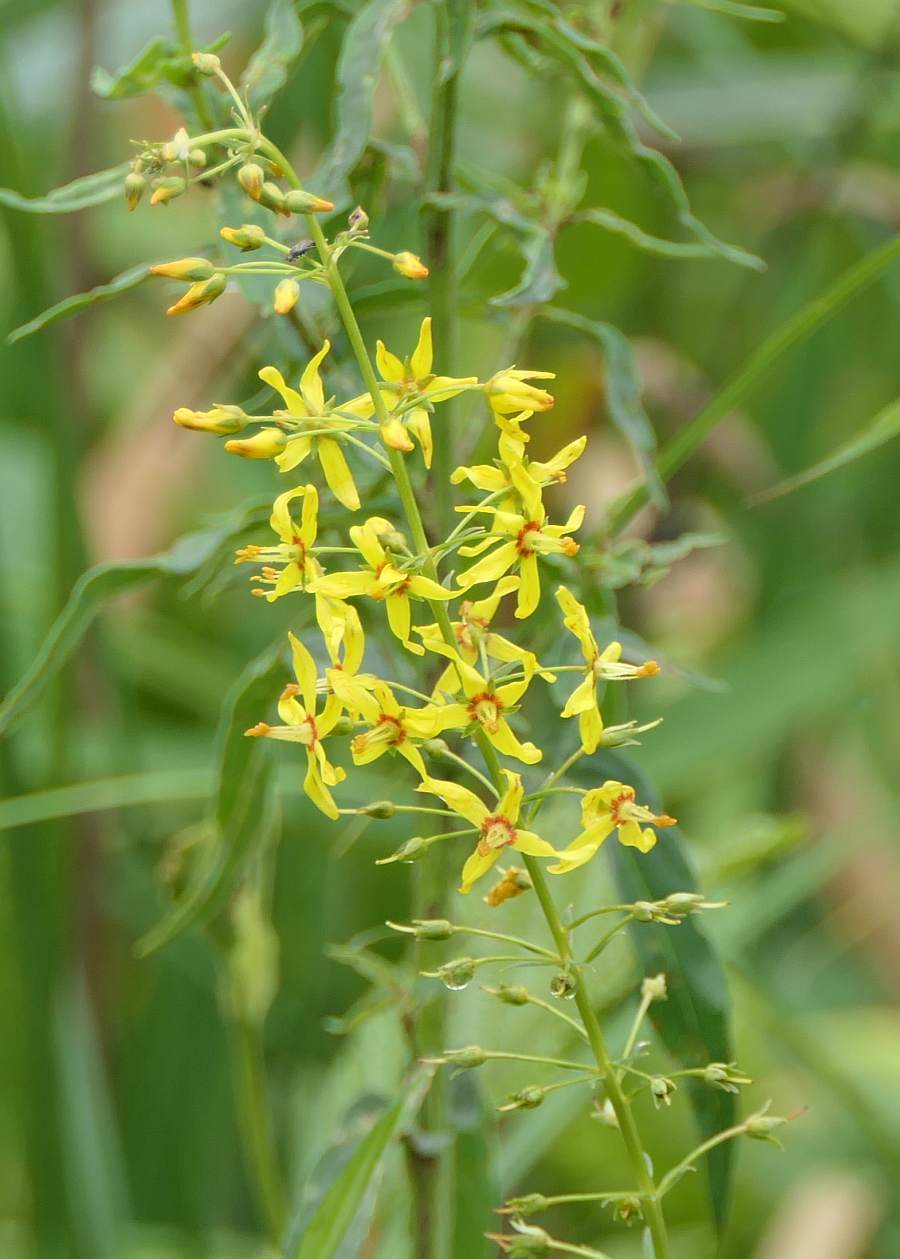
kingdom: Plantae
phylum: Tracheophyta
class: Magnoliopsida
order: Ericales
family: Primulaceae
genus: Lysimachia
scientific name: Lysimachia terrestris
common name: Lake loosestrife
